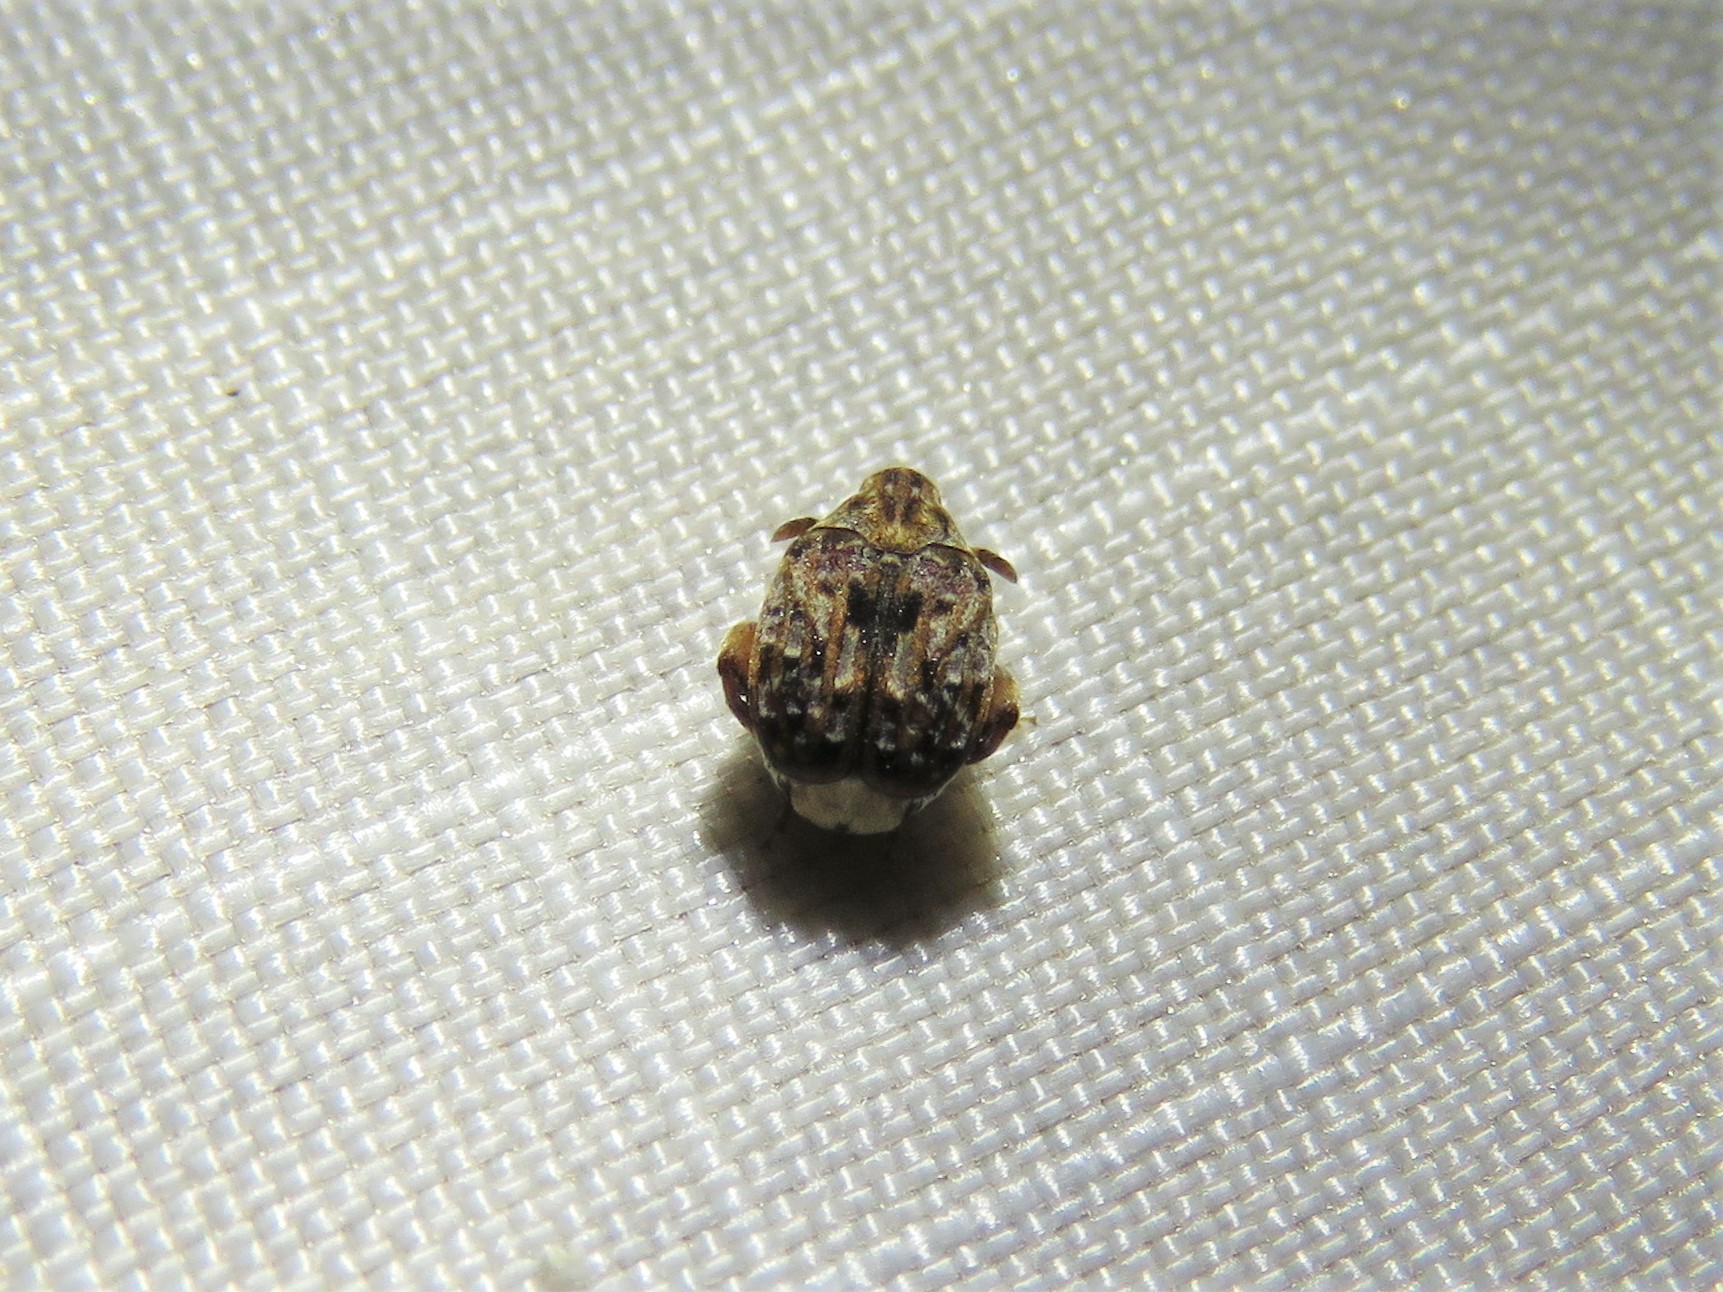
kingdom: Animalia
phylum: Arthropoda
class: Insecta
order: Coleoptera
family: Chrysomelidae
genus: Gibbobruchus
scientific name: Gibbobruchus mimus
